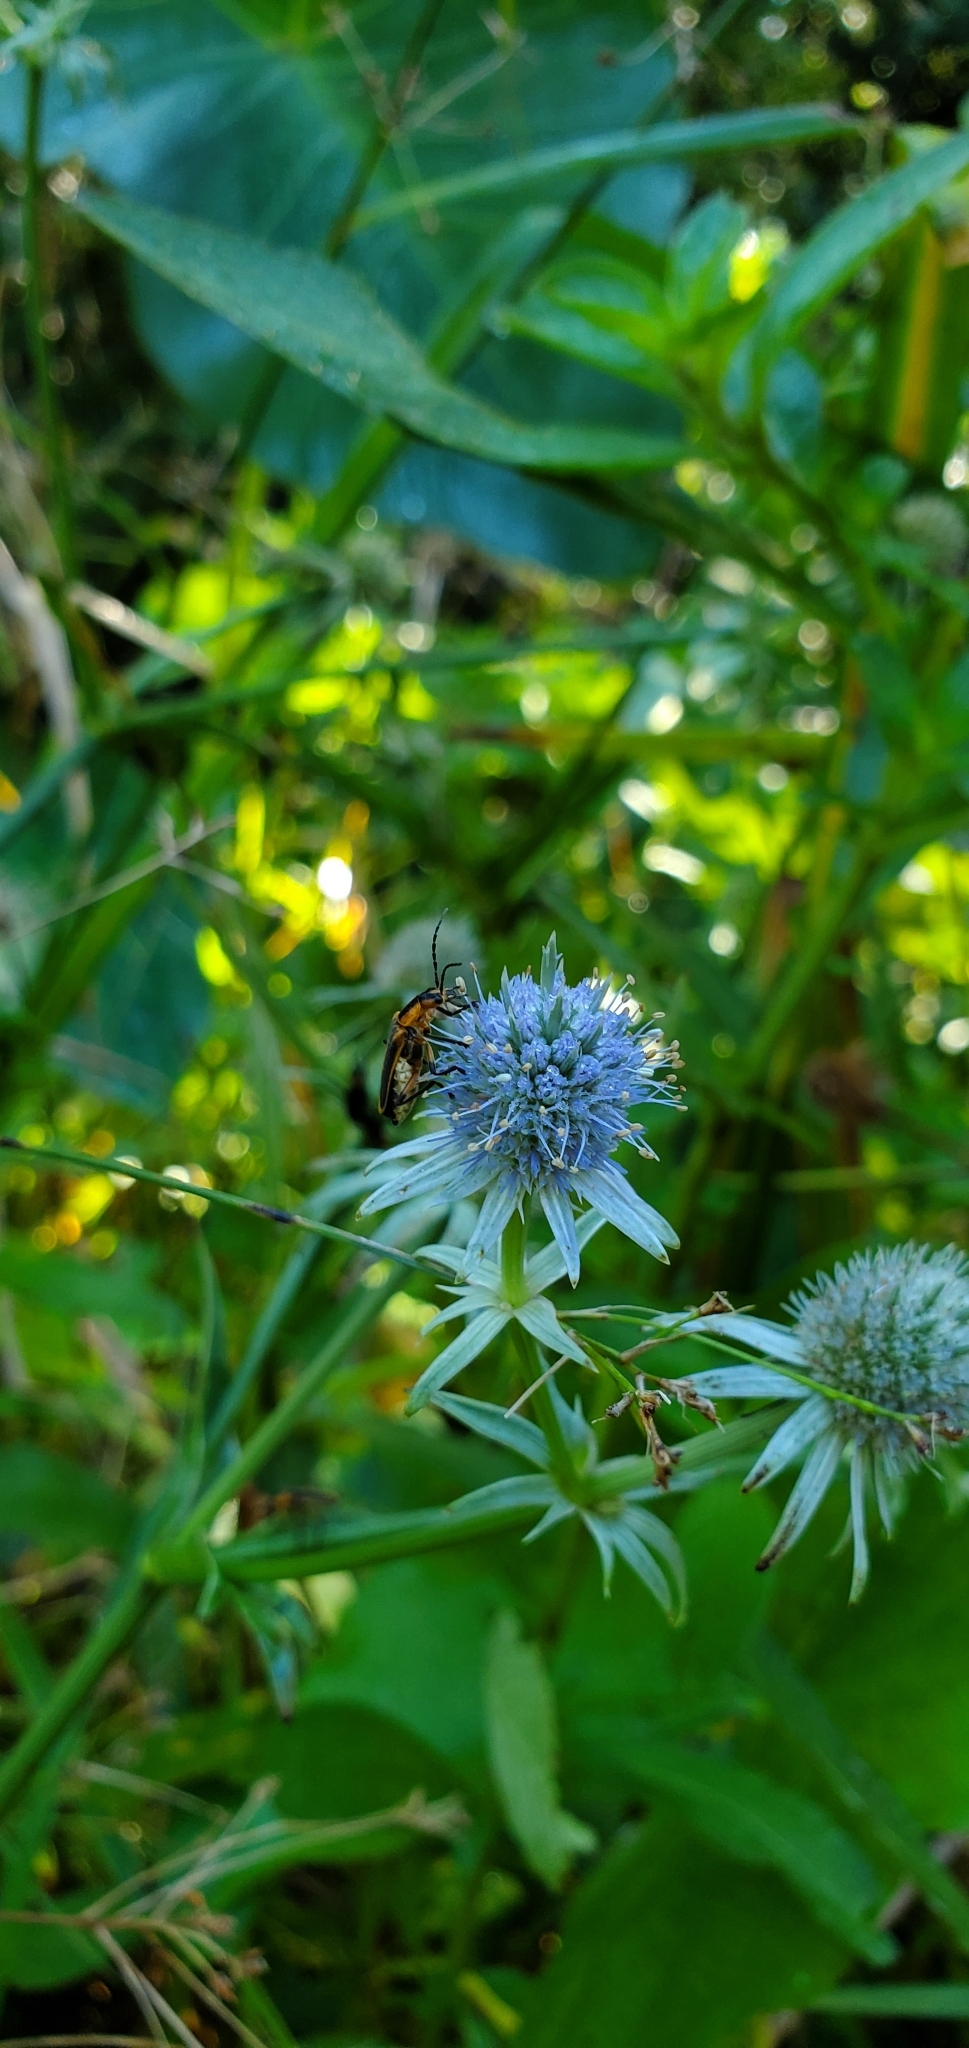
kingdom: Plantae
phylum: Tracheophyta
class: Magnoliopsida
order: Apiales
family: Apiaceae
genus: Eryngium
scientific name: Eryngium aquaticum
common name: Water eryngo
